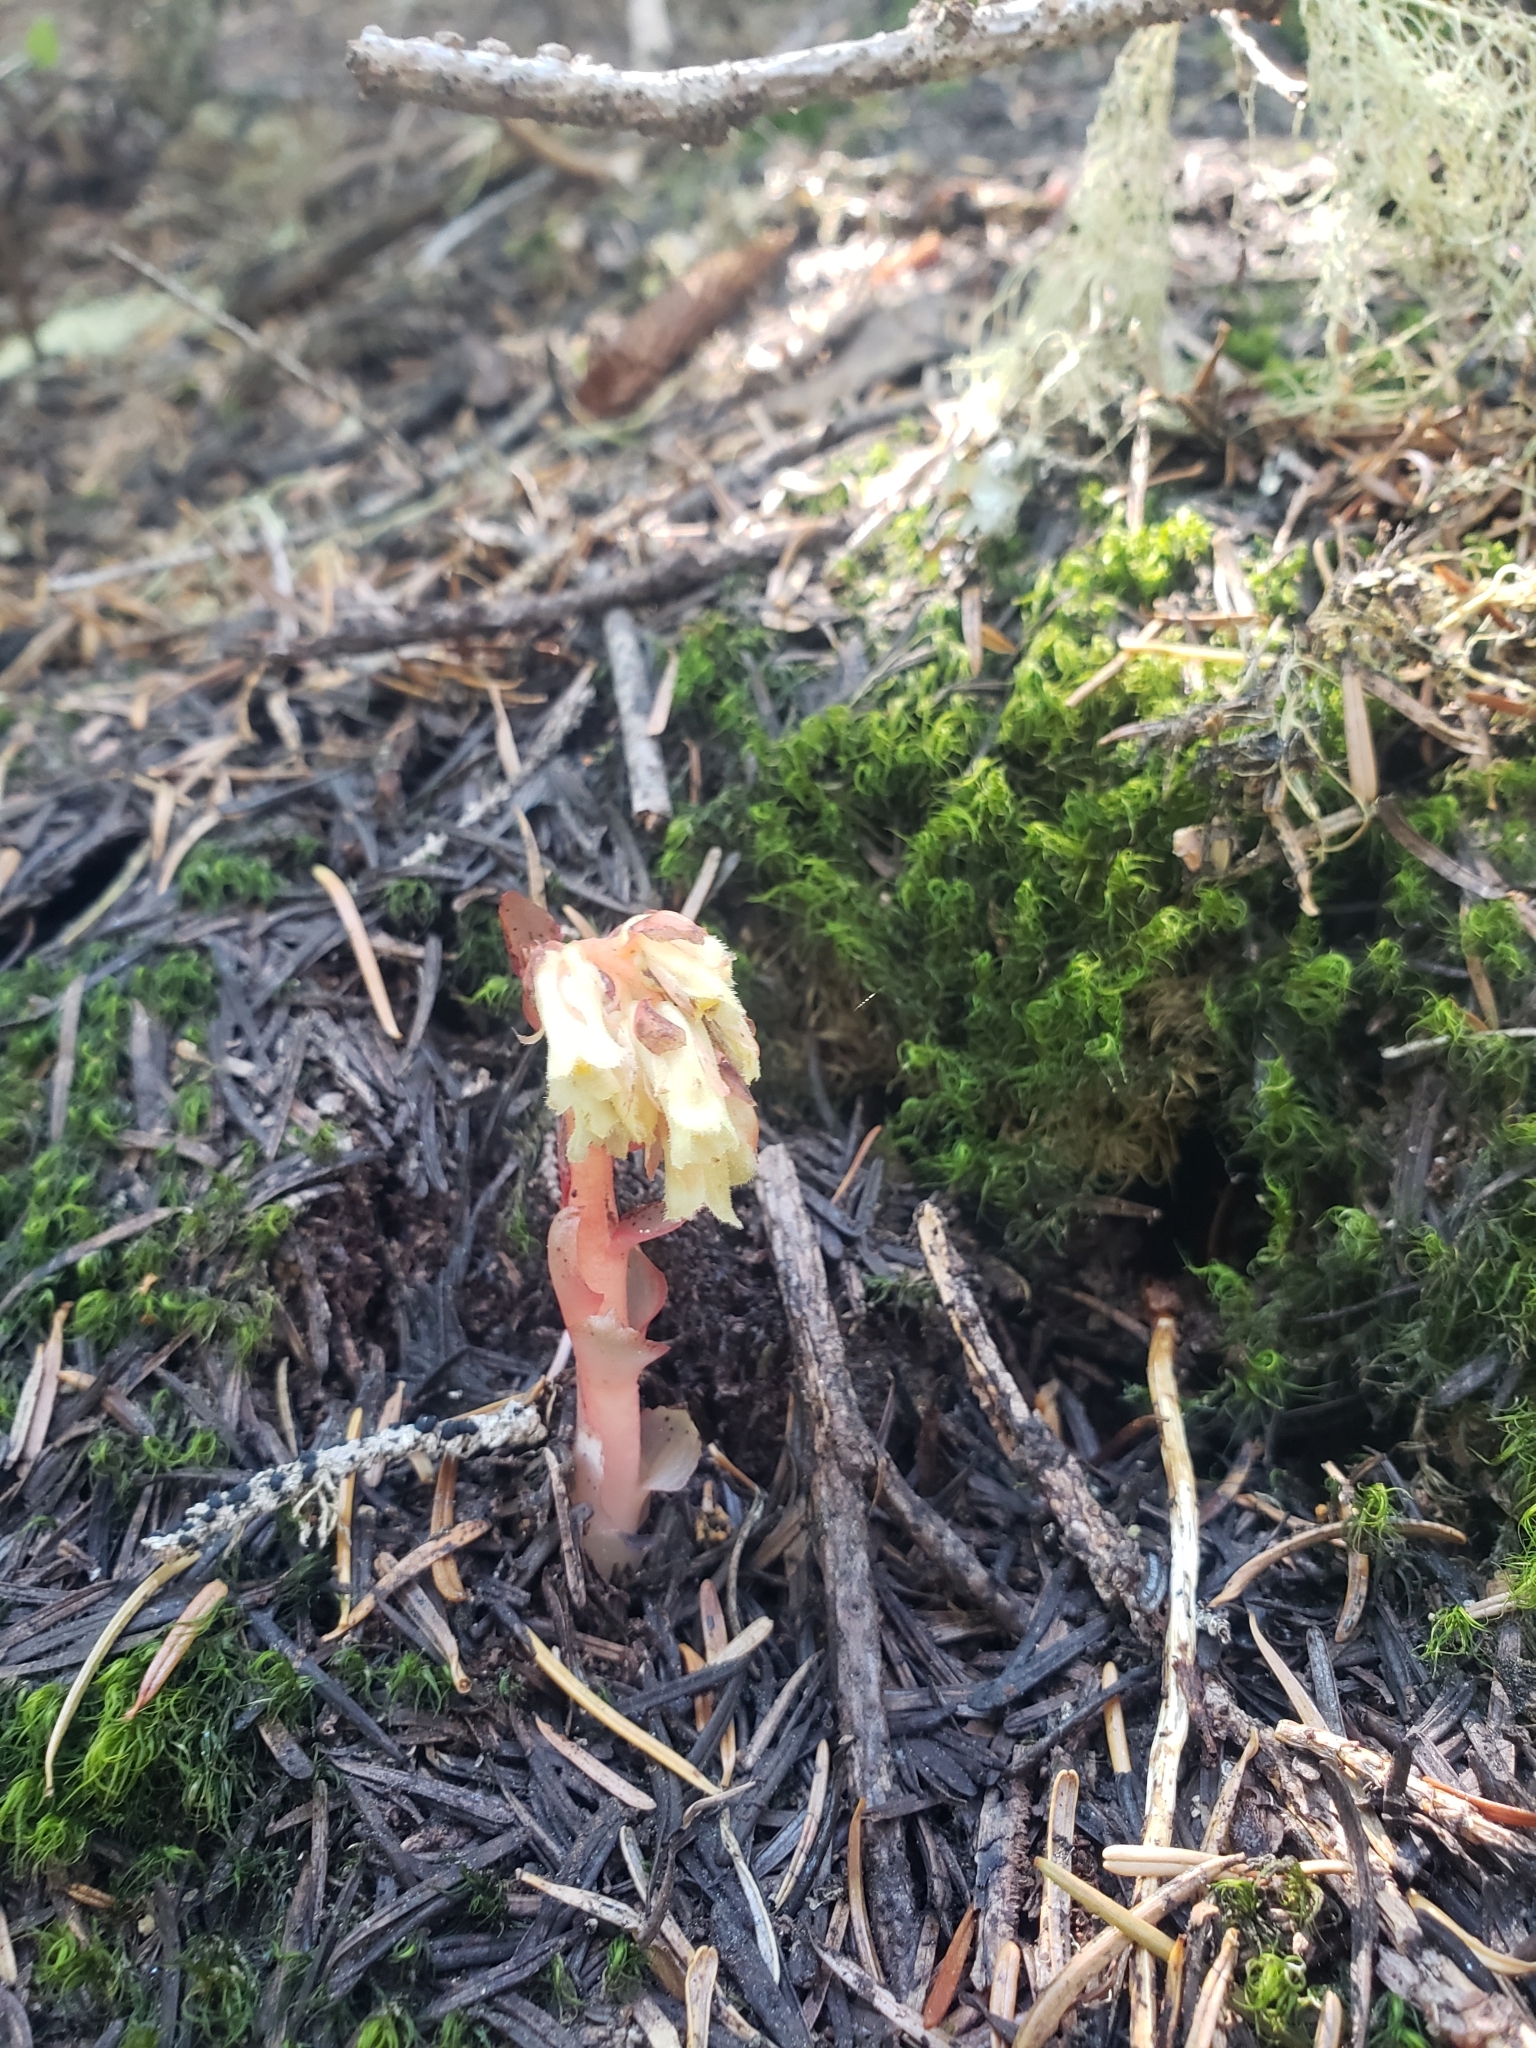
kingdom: Plantae
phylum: Tracheophyta
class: Magnoliopsida
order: Ericales
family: Ericaceae
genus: Hypopitys
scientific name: Hypopitys monotropa
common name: Yellow bird's-nest
